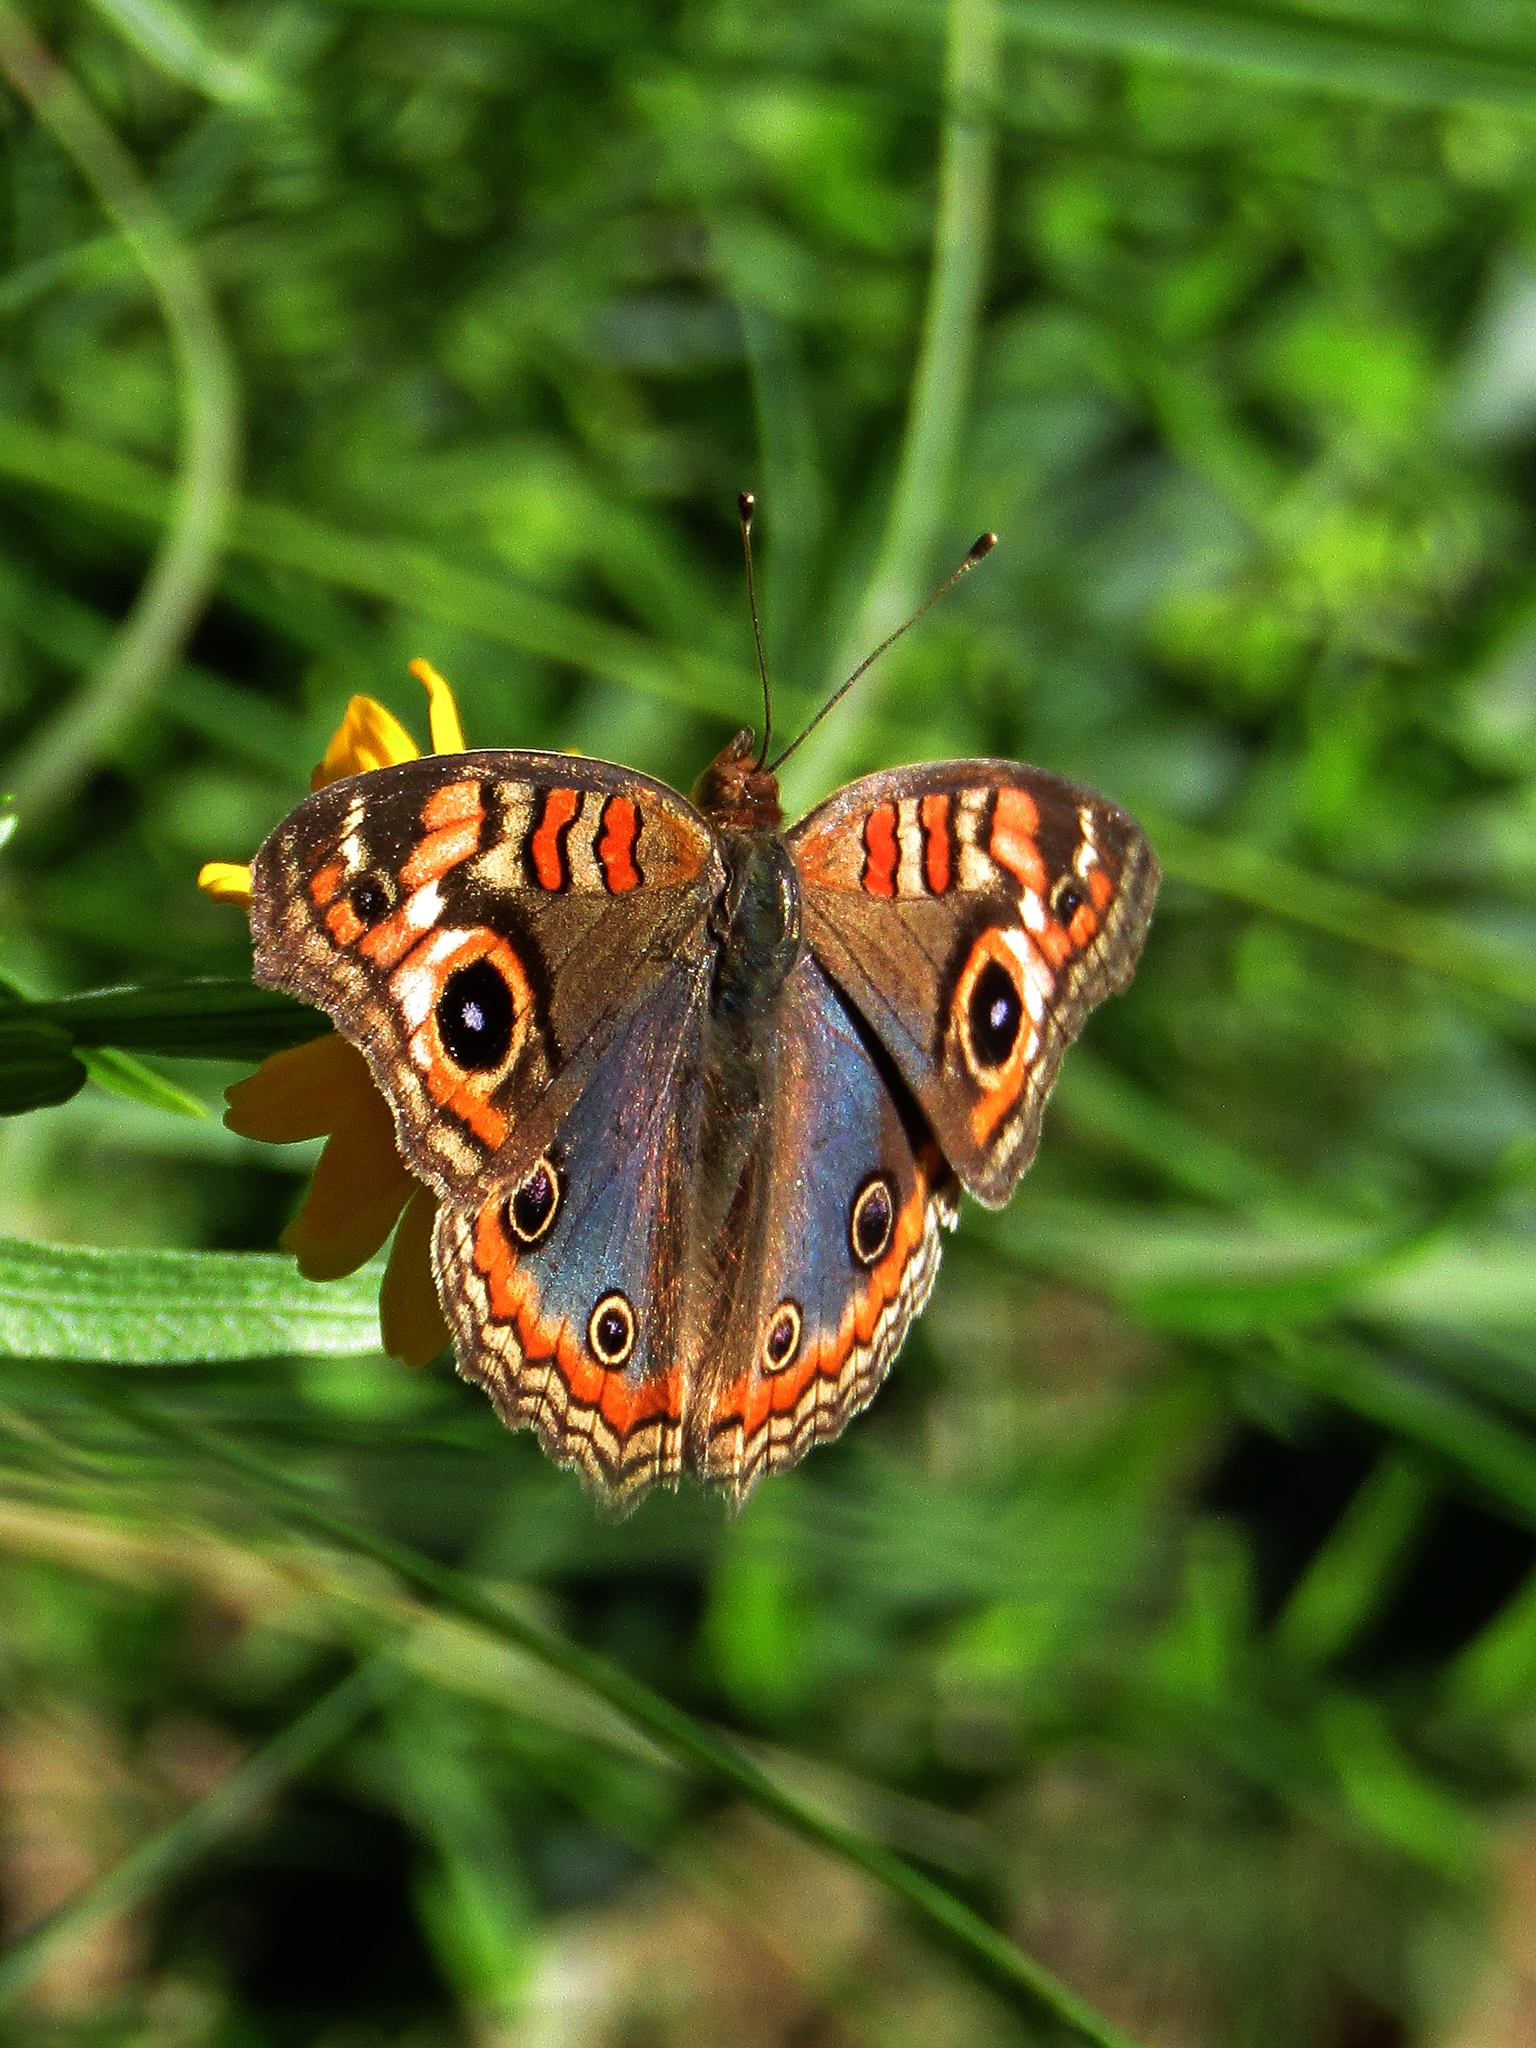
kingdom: Animalia
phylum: Arthropoda
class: Insecta
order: Lepidoptera
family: Nymphalidae
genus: Junonia
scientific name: Junonia lavinia
